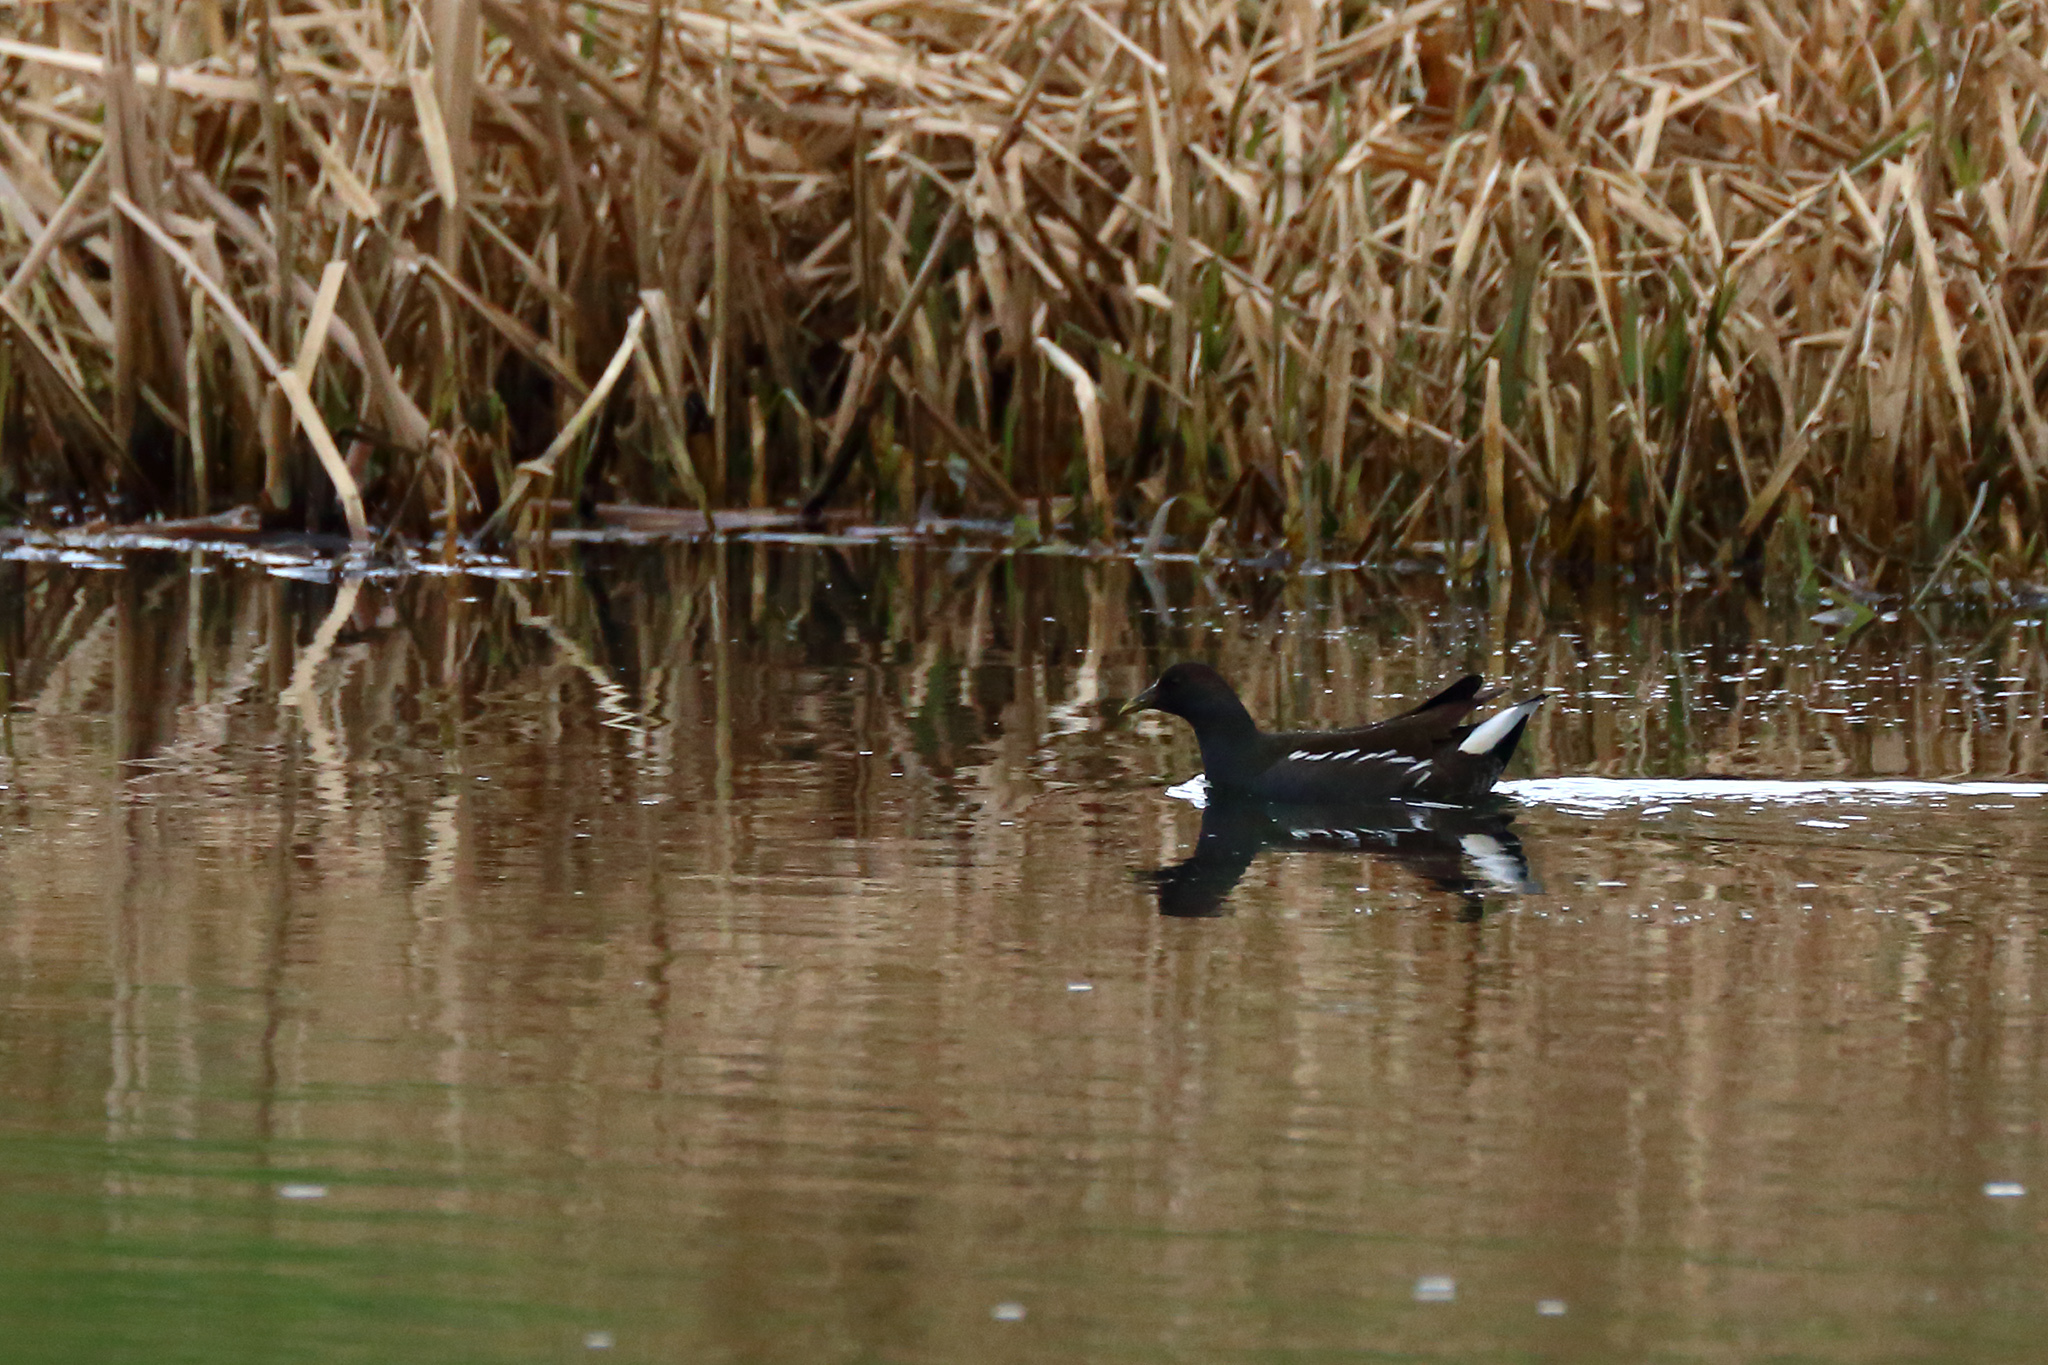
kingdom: Animalia
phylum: Chordata
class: Aves
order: Gruiformes
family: Rallidae
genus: Gallinula
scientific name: Gallinula chloropus
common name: Common moorhen
